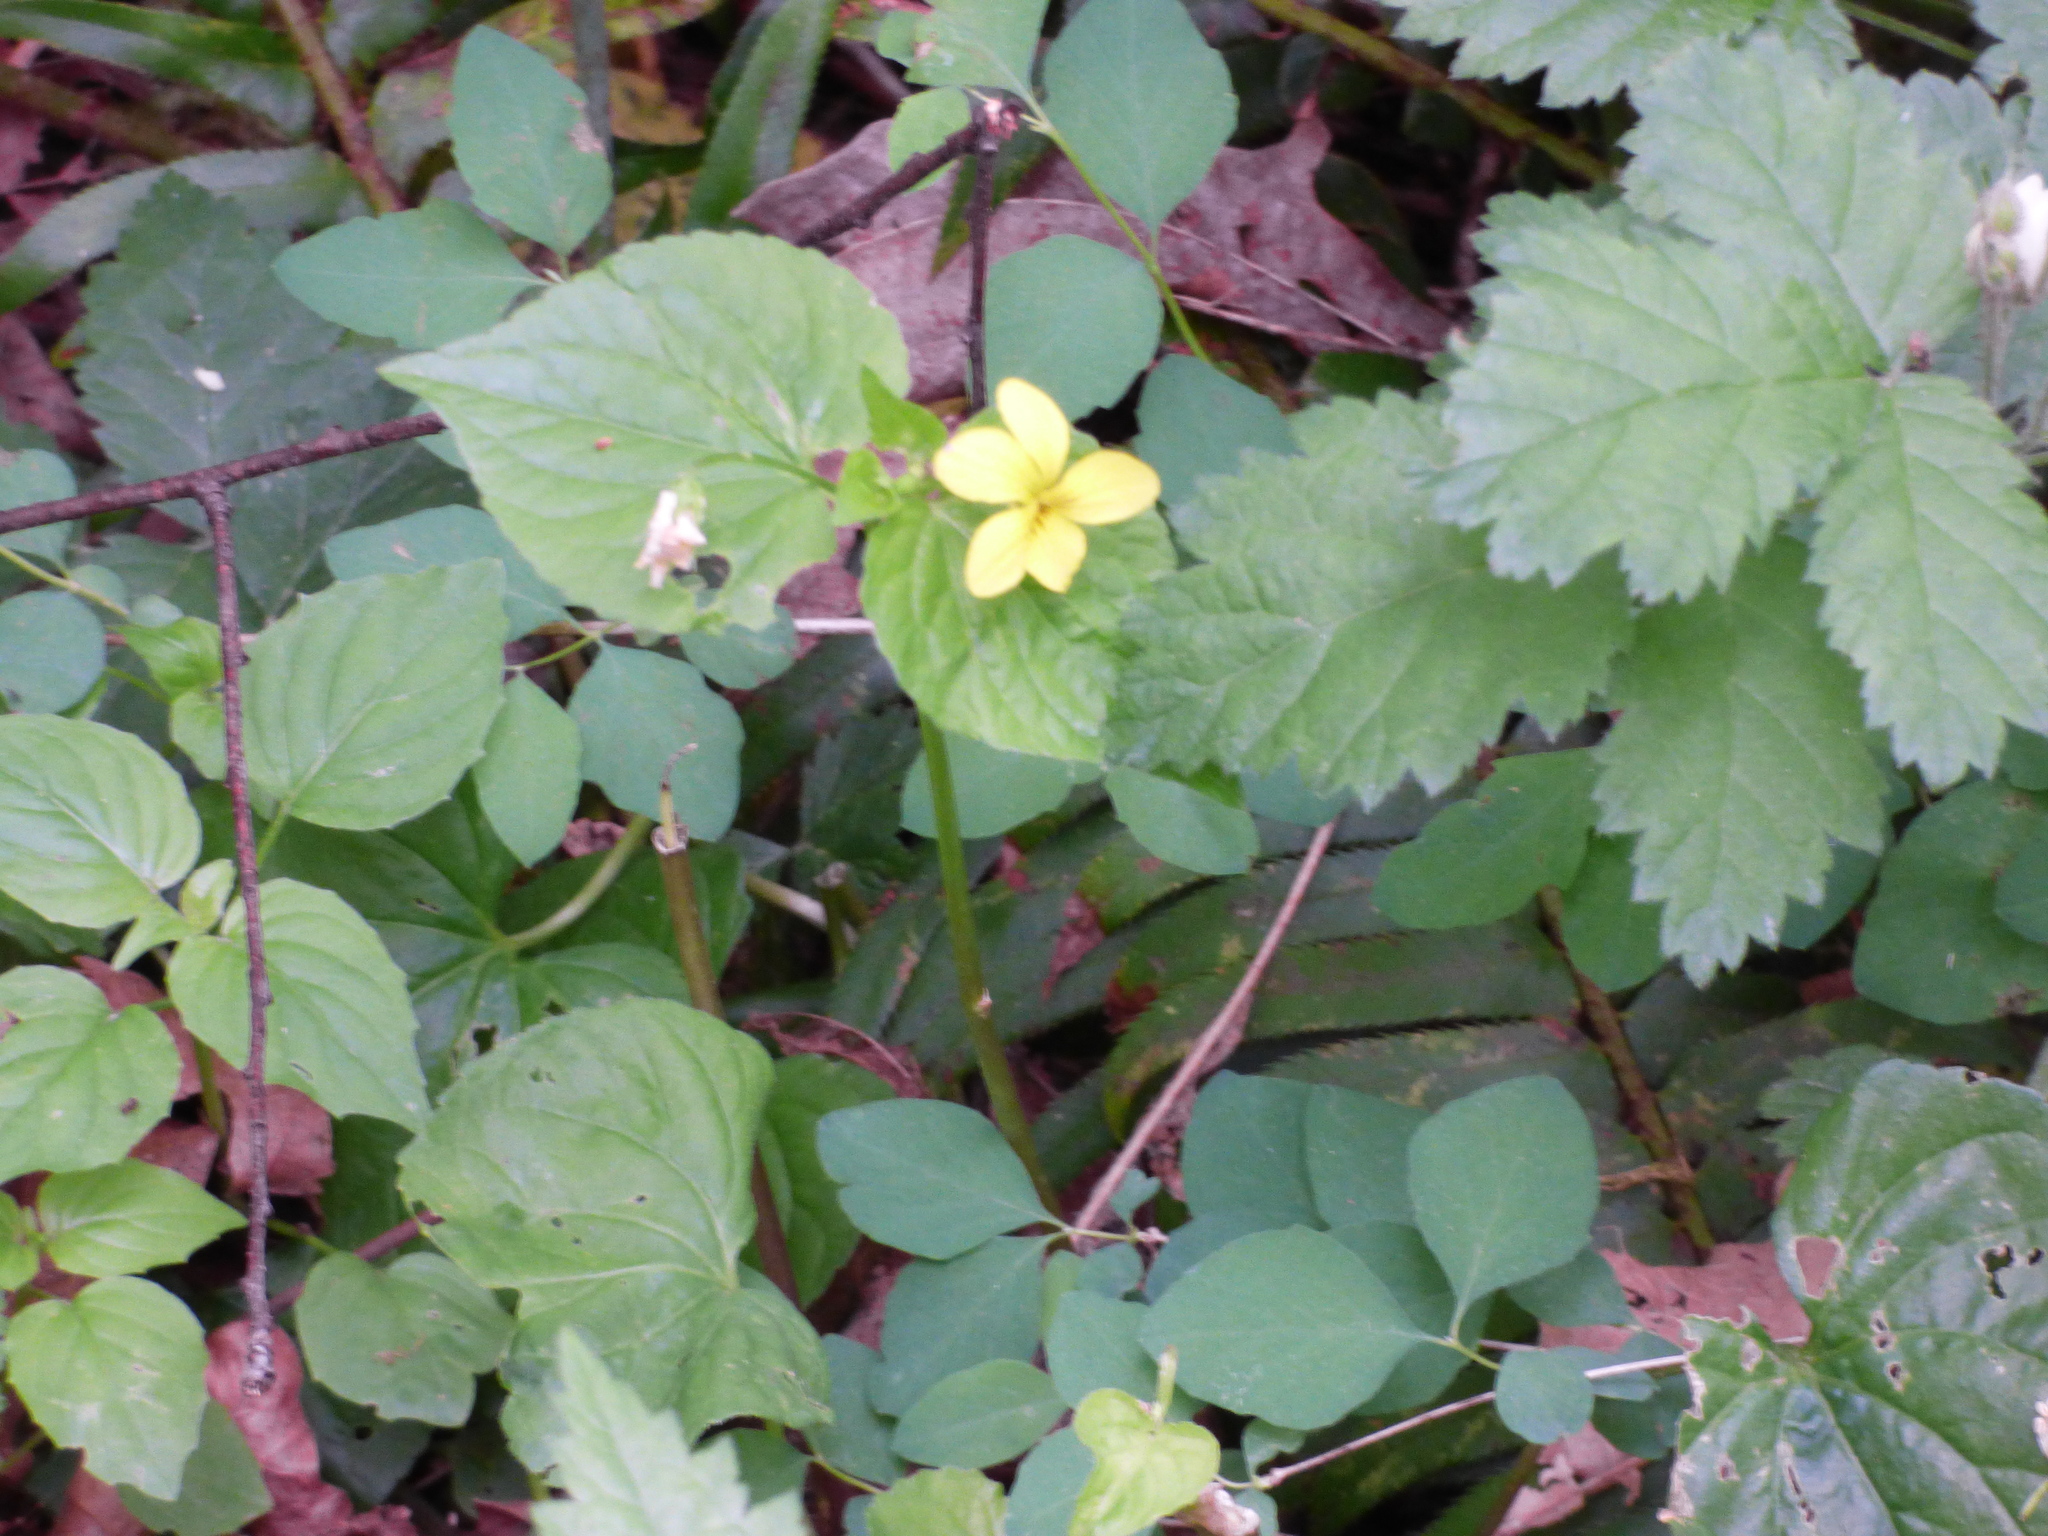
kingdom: Plantae
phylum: Tracheophyta
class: Magnoliopsida
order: Malpighiales
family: Violaceae
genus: Viola
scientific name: Viola glabella
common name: Stream violet
